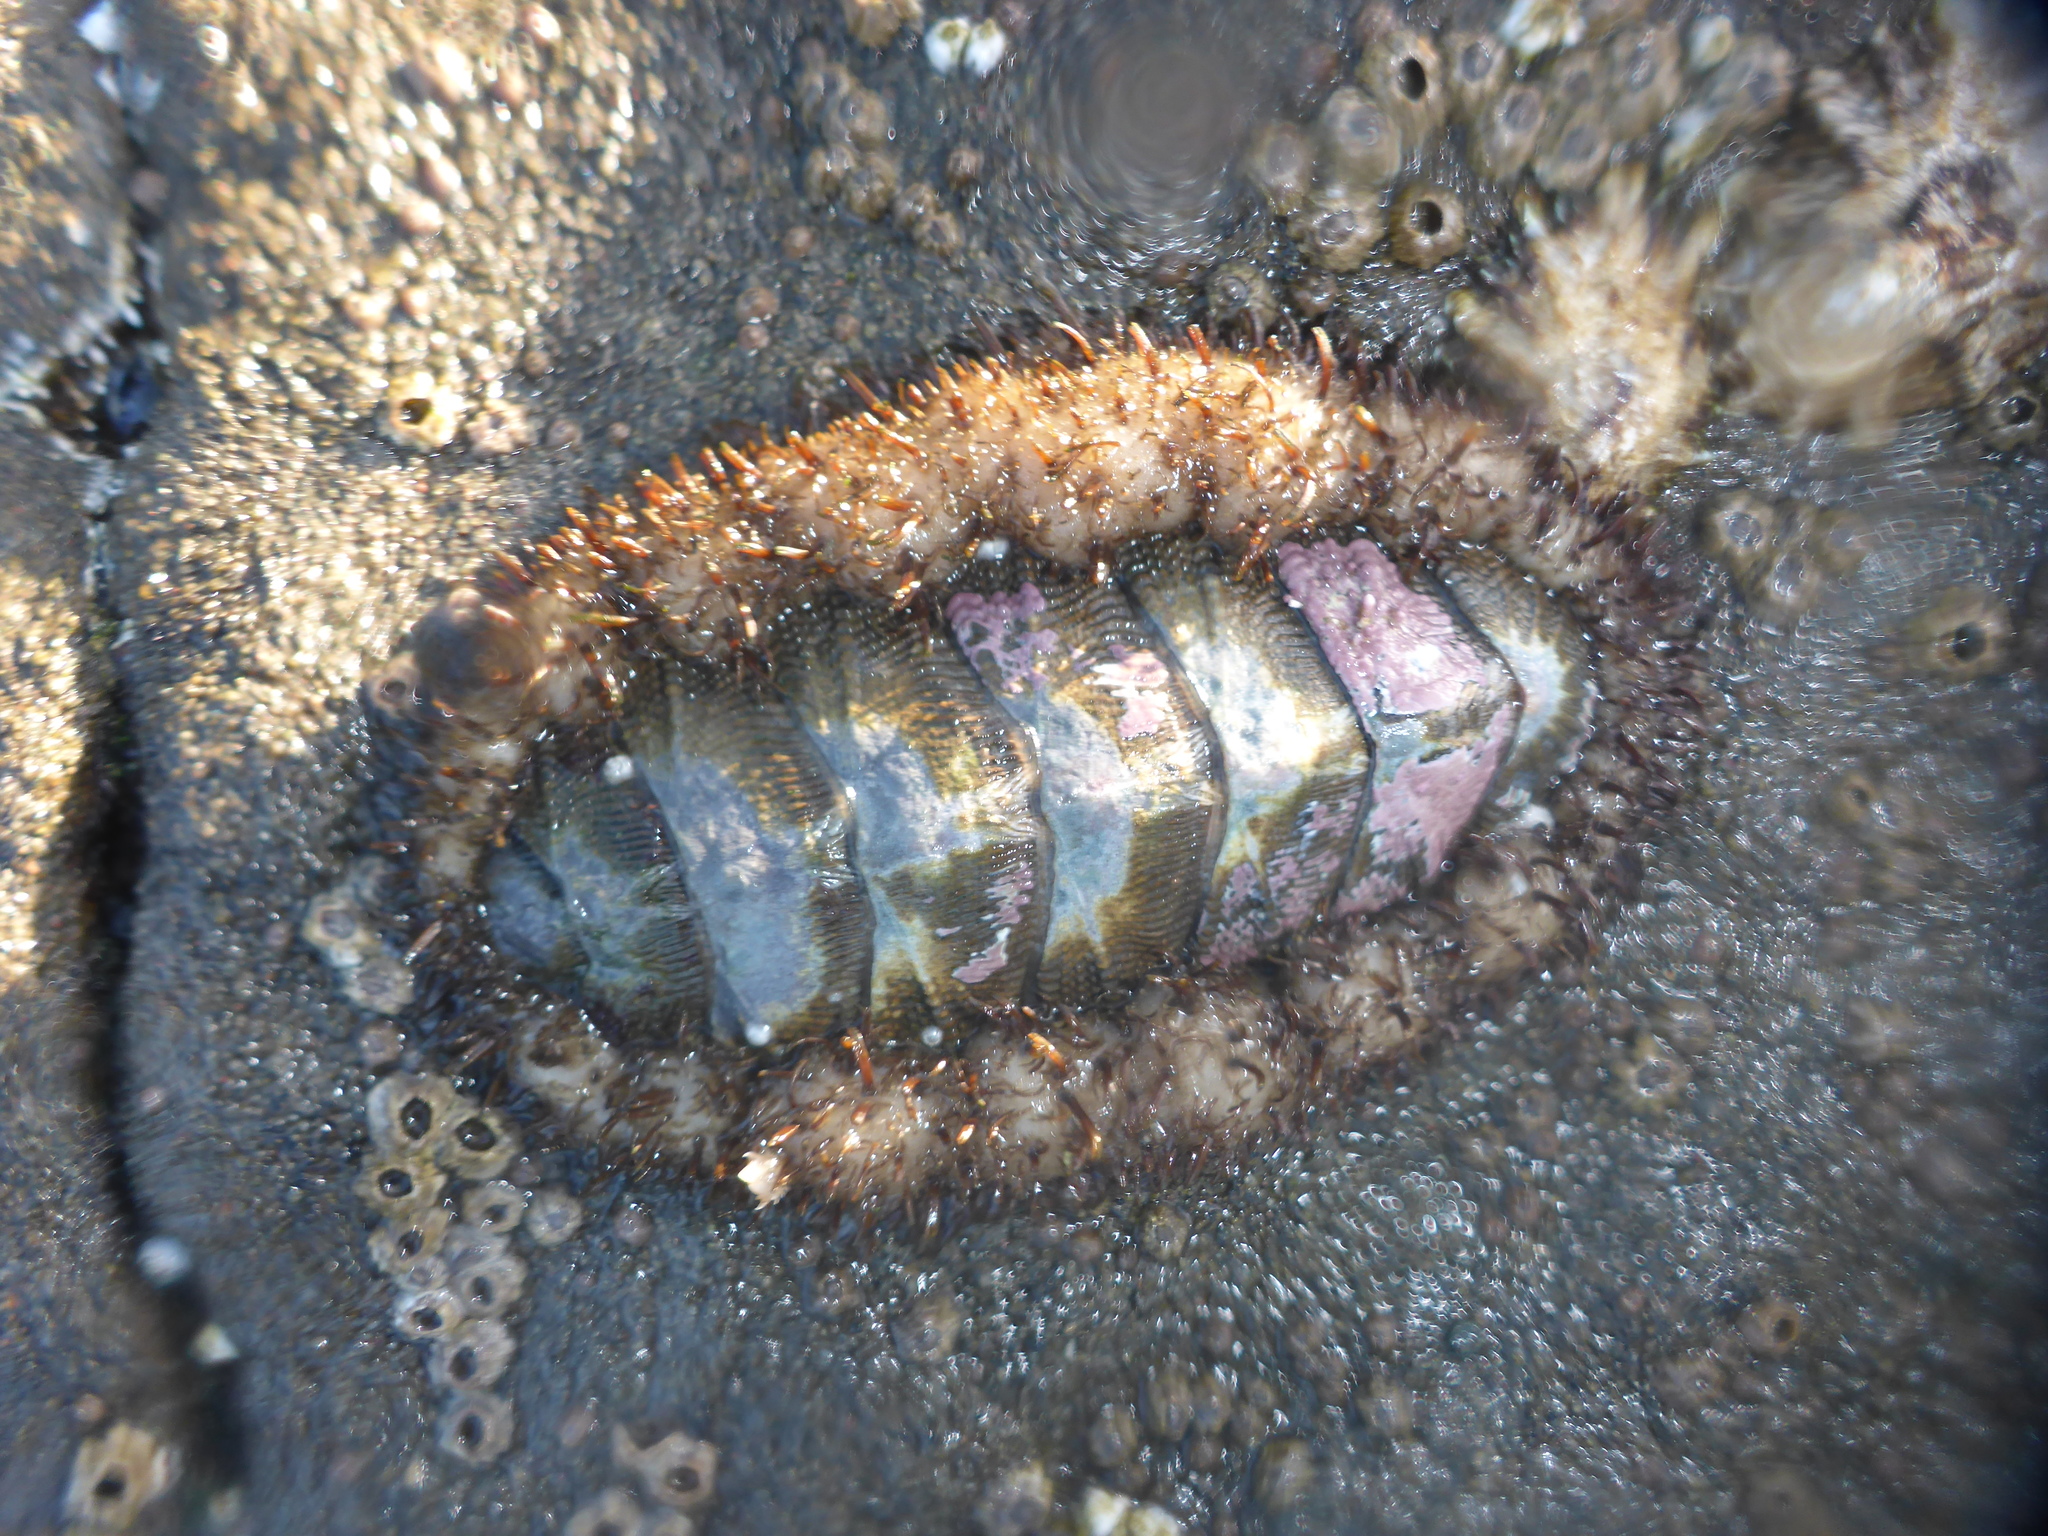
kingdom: Animalia
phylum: Mollusca
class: Polyplacophora
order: Chitonida
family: Mopaliidae
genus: Mopalia
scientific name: Mopalia muscosa
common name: Mossy chiton
